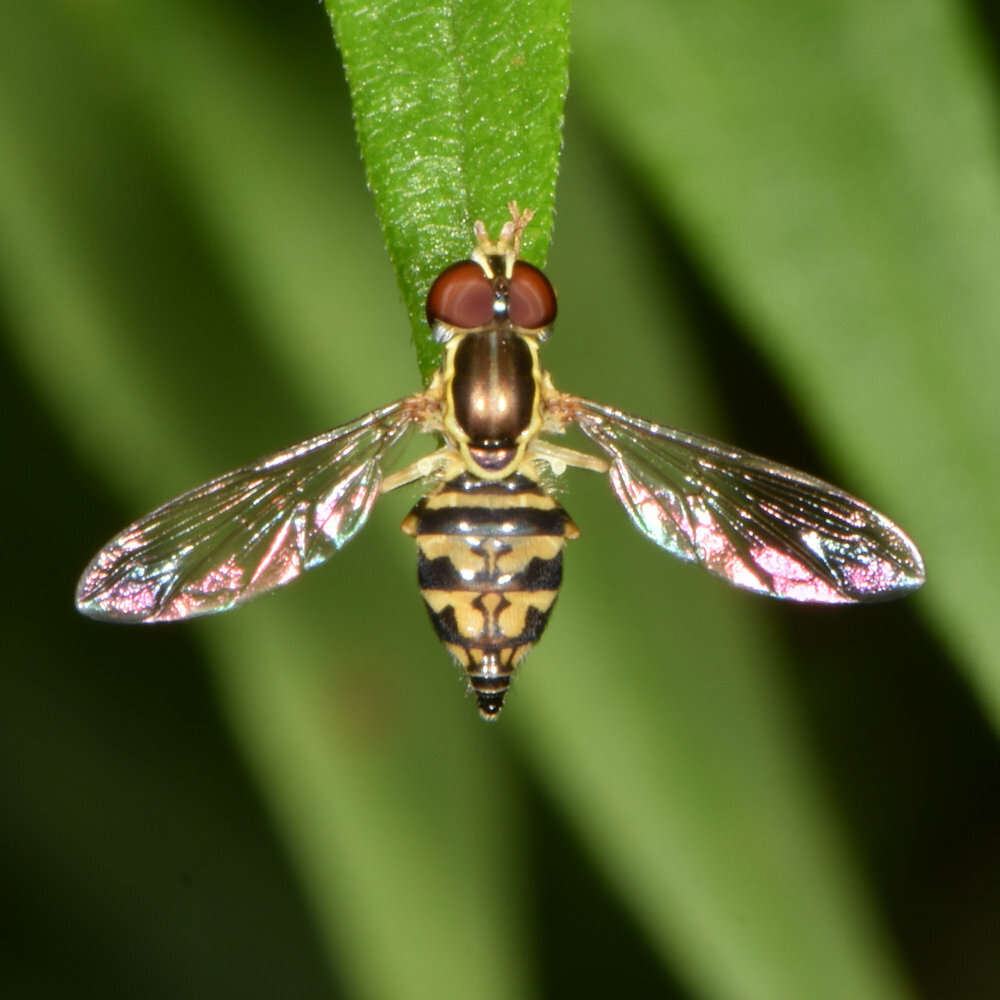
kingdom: Animalia
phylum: Arthropoda
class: Insecta
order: Diptera
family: Syrphidae
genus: Toxomerus
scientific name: Toxomerus geminatus
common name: Eastern calligrapher
